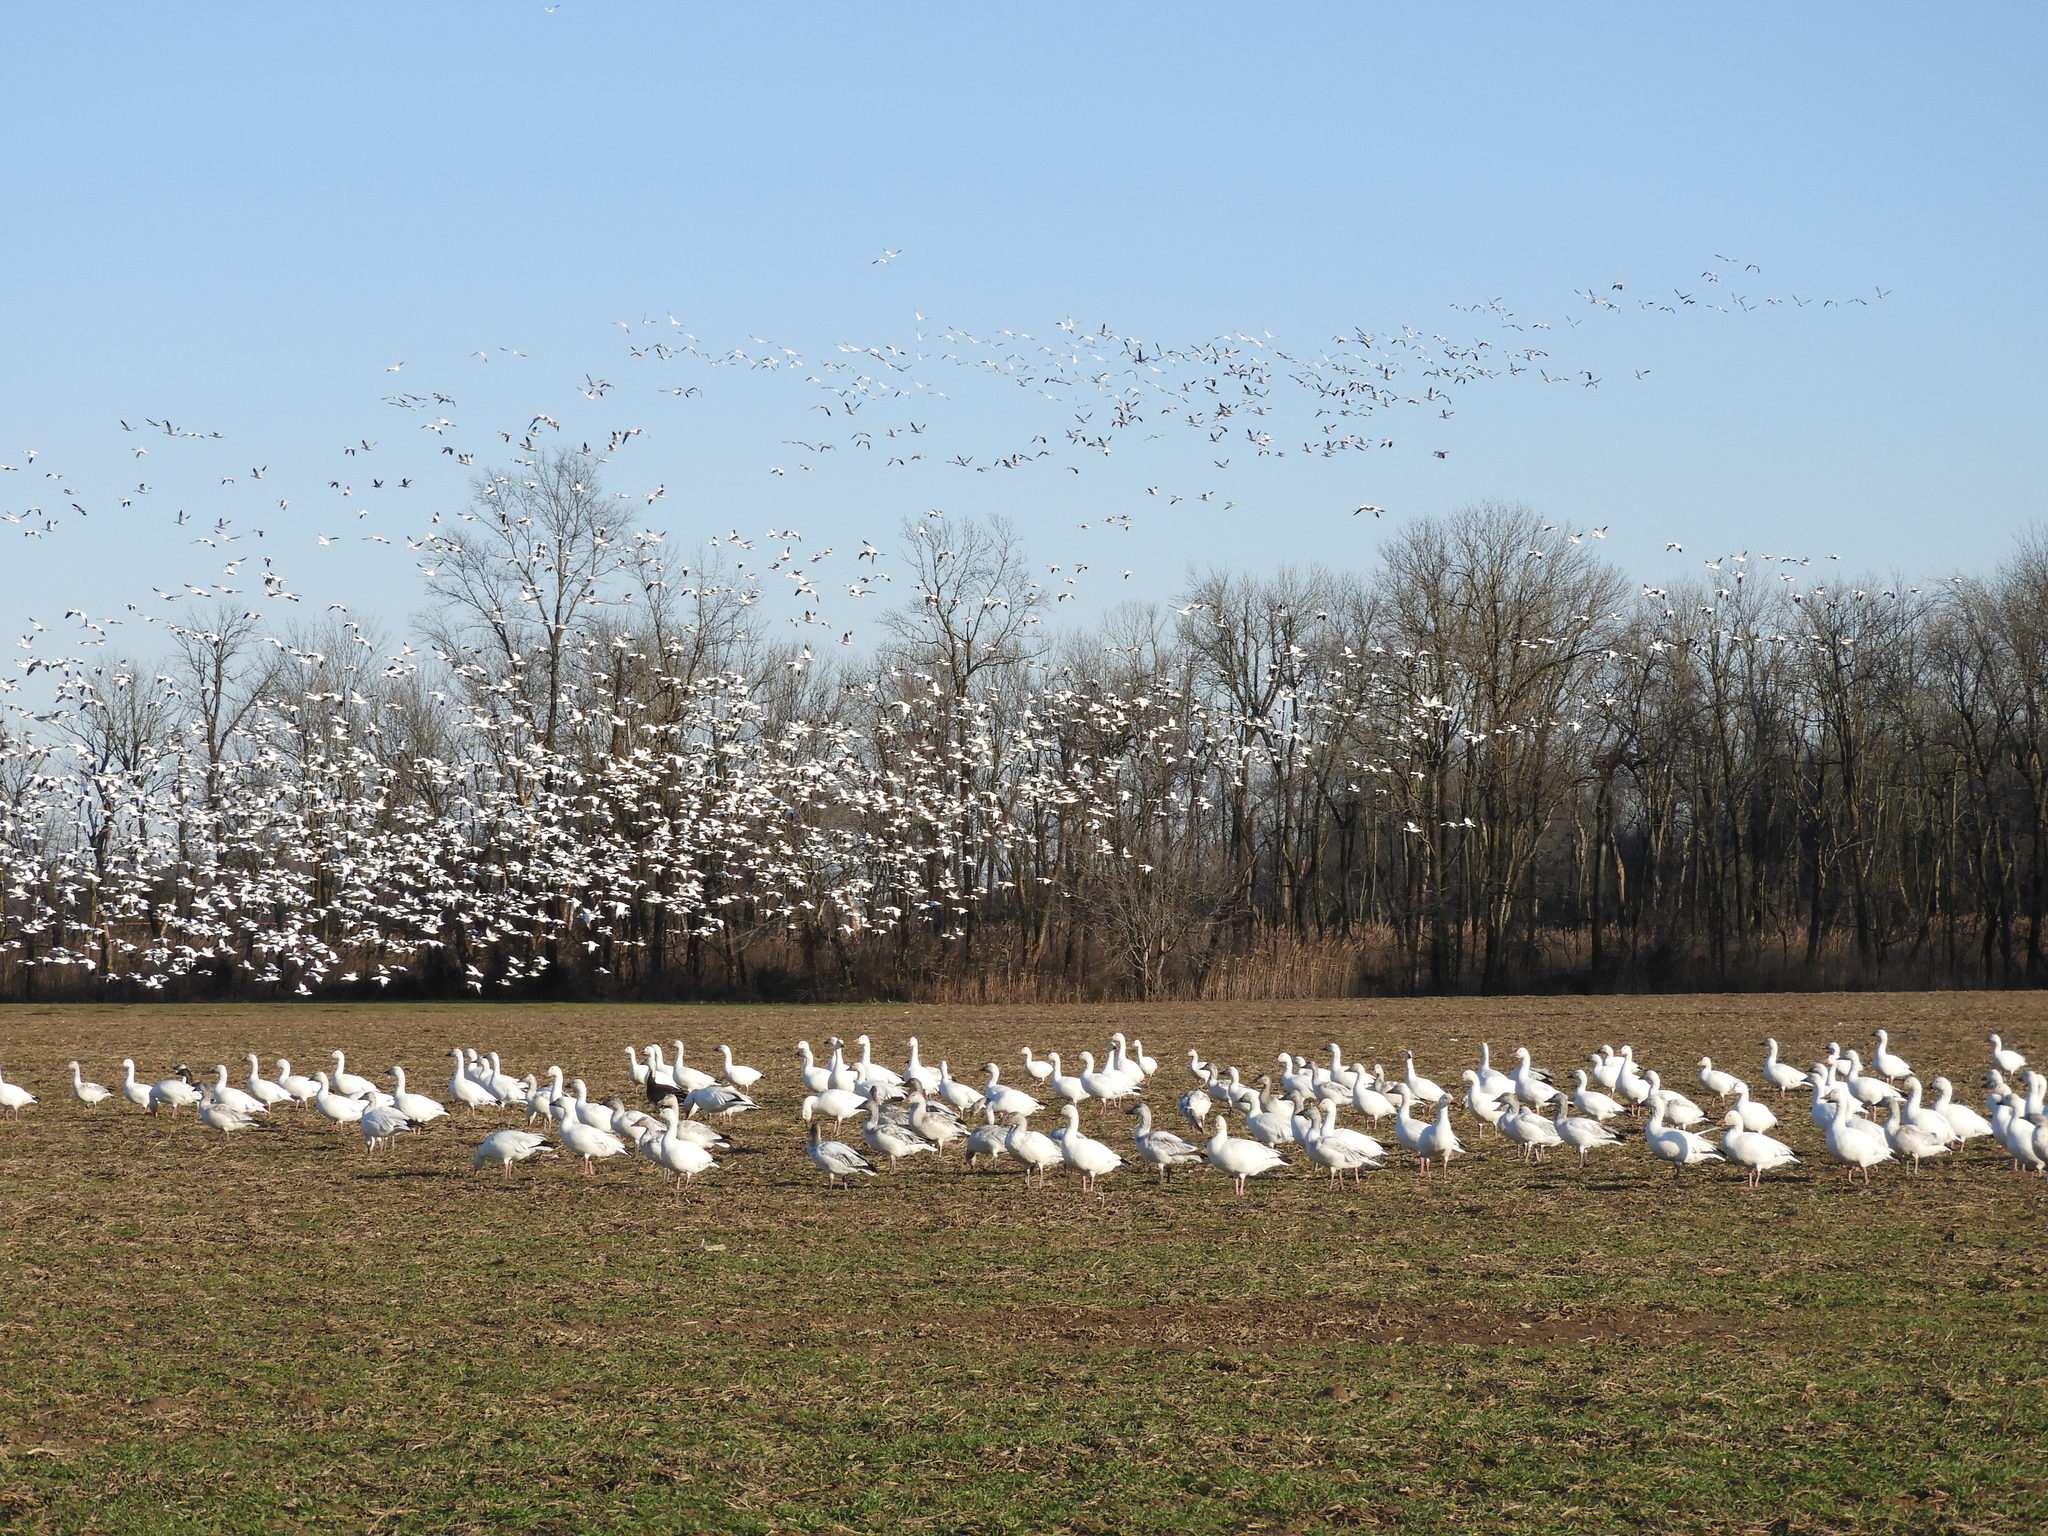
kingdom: Animalia
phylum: Chordata
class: Aves
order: Anseriformes
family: Anatidae
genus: Anser
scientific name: Anser caerulescens
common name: Snow goose
